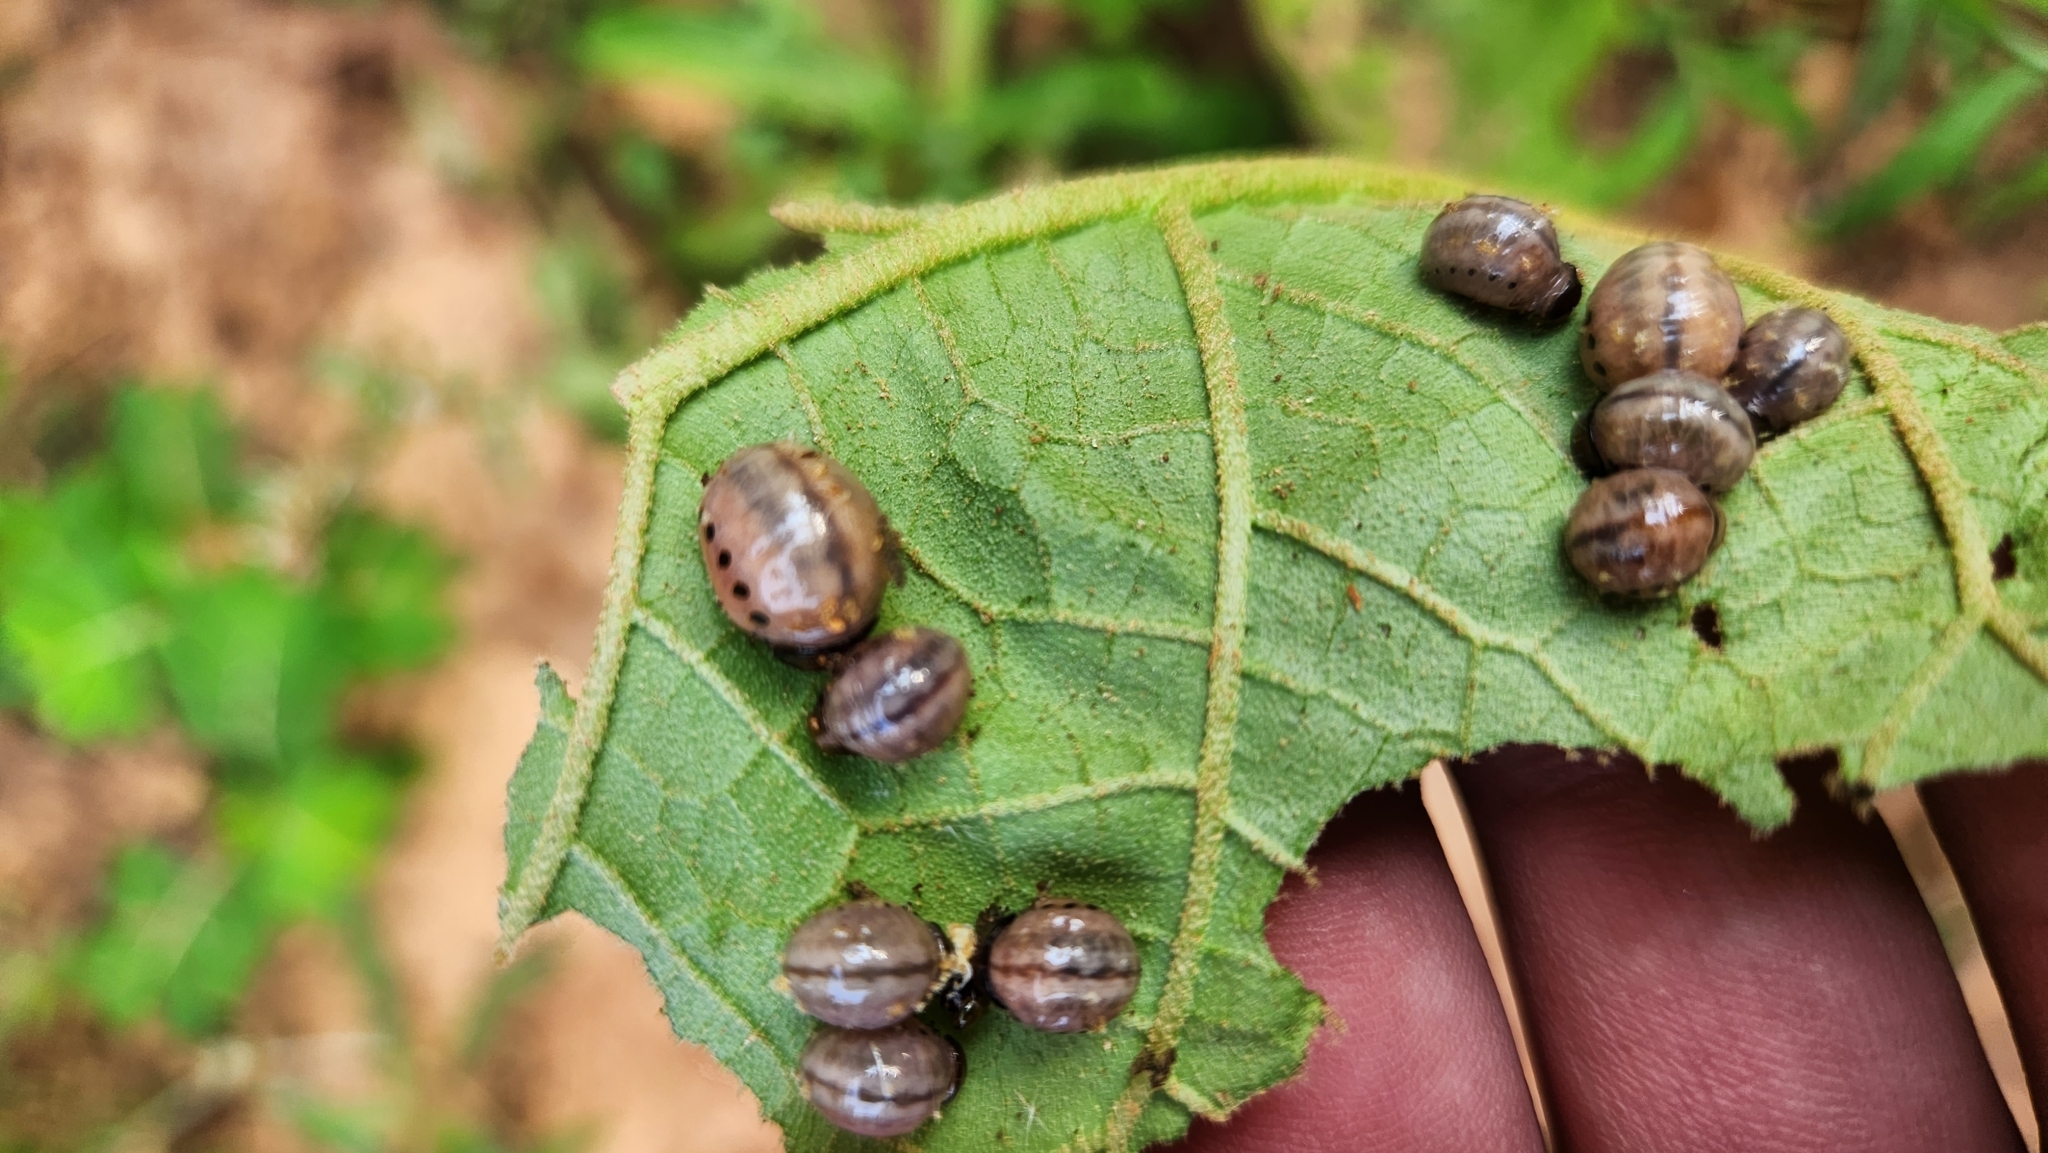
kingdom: Animalia
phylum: Arthropoda
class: Insecta
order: Coleoptera
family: Chrysomelidae
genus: Leptinotarsa
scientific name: Leptinotarsa juncta
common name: False potato beetle
